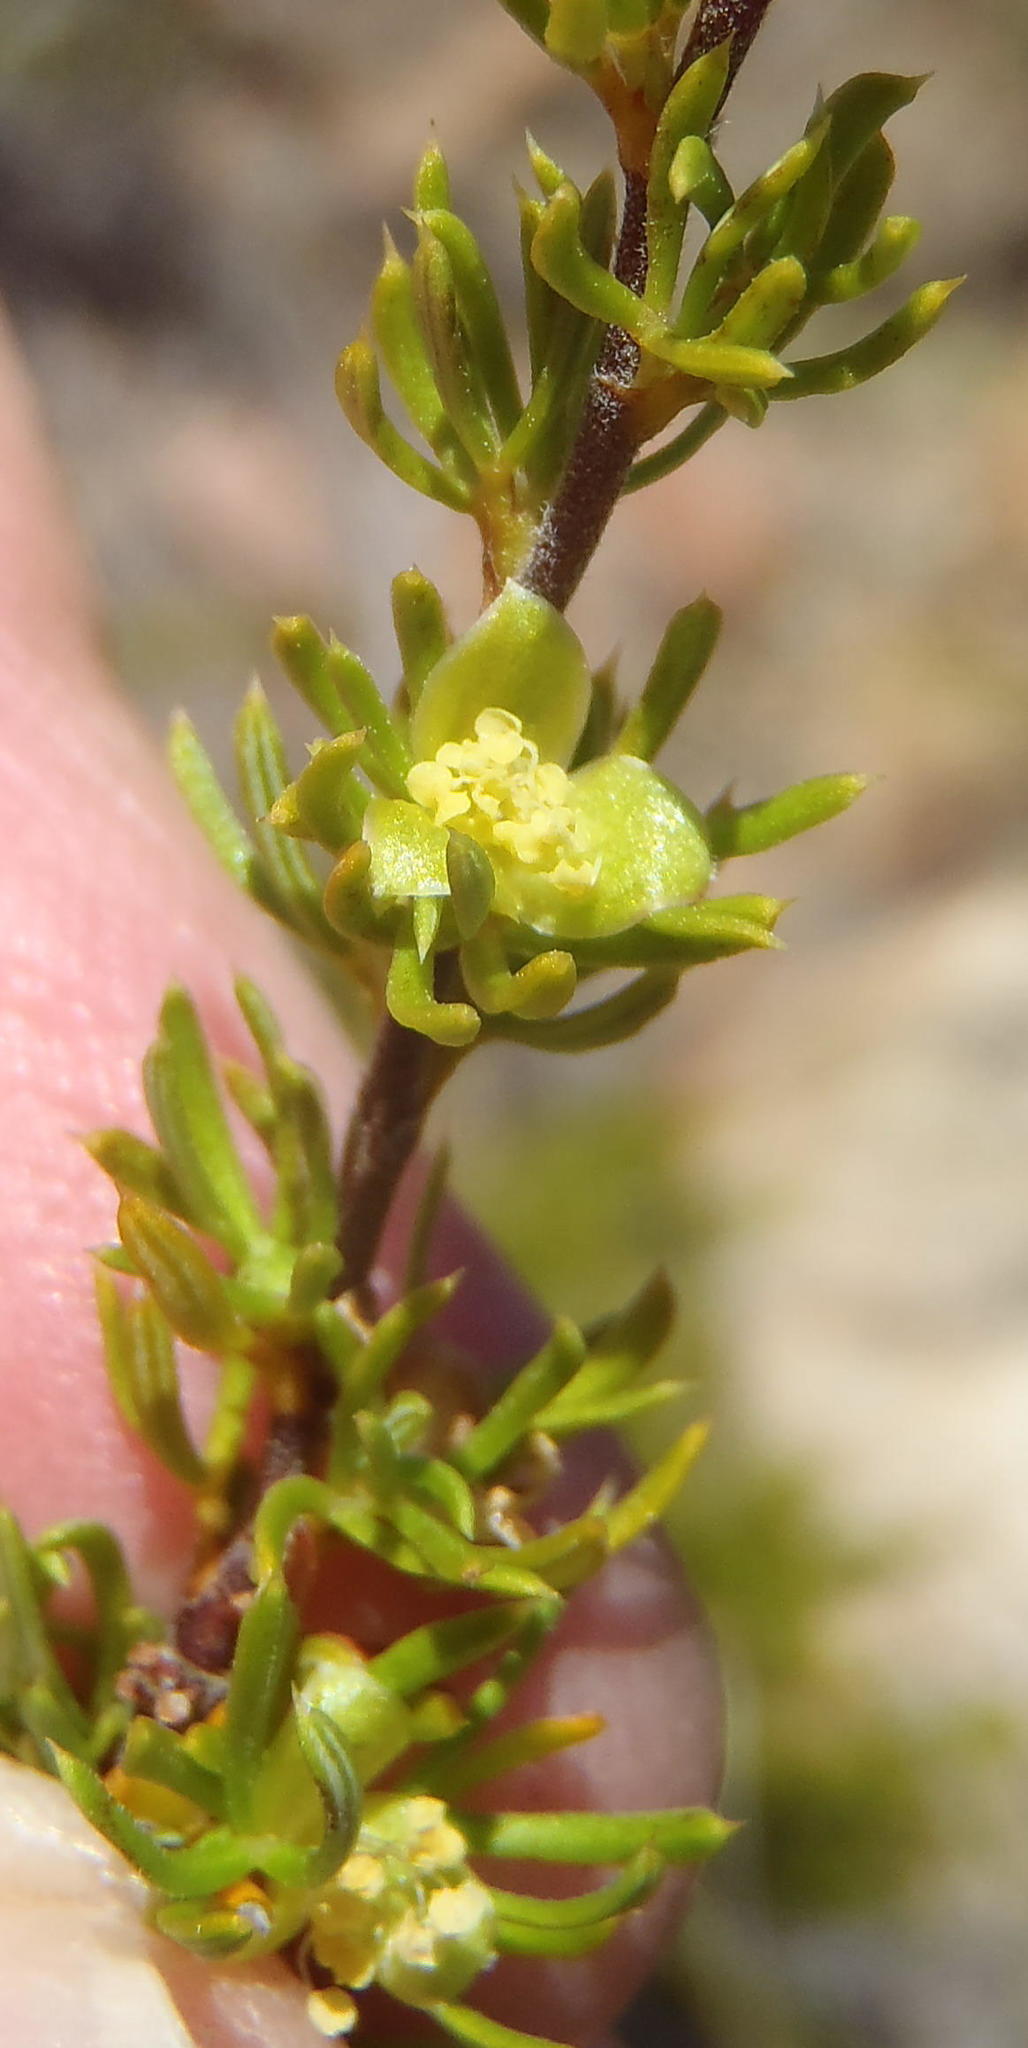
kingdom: Plantae
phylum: Tracheophyta
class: Magnoliopsida
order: Rosales
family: Rosaceae
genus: Cliffortia
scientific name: Cliffortia arcuata
